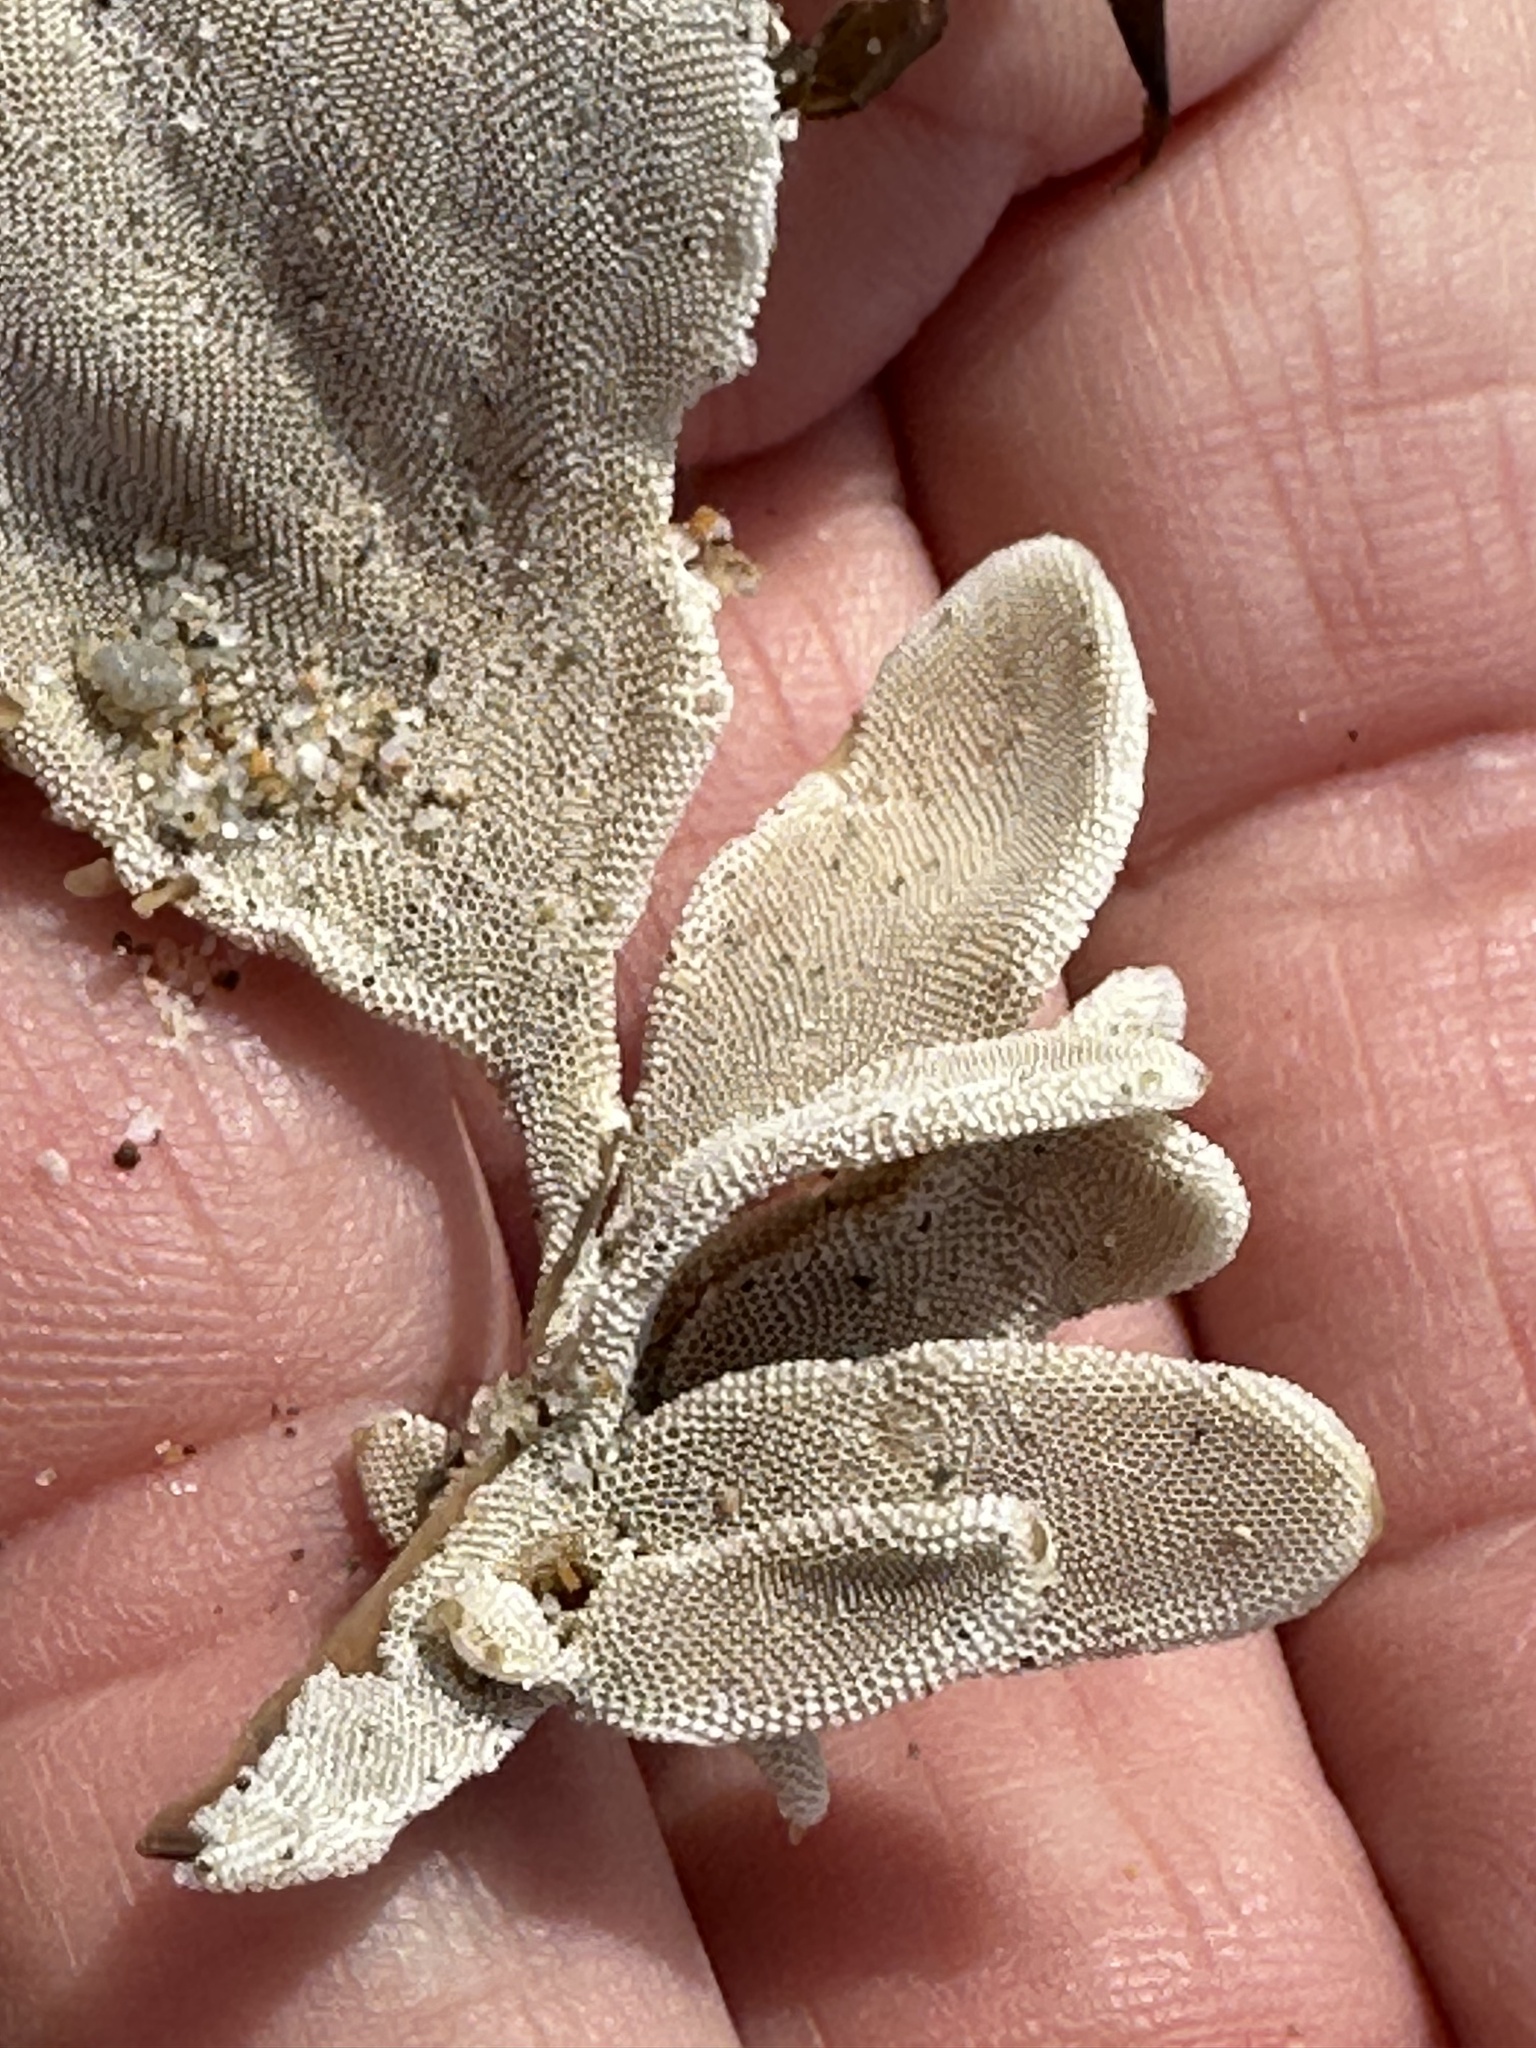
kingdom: Animalia
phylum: Bryozoa
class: Gymnolaemata
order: Cheilostomatida
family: Membraniporidae
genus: Jellyella
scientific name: Jellyella tuberculata
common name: Sargassum bryozoan
